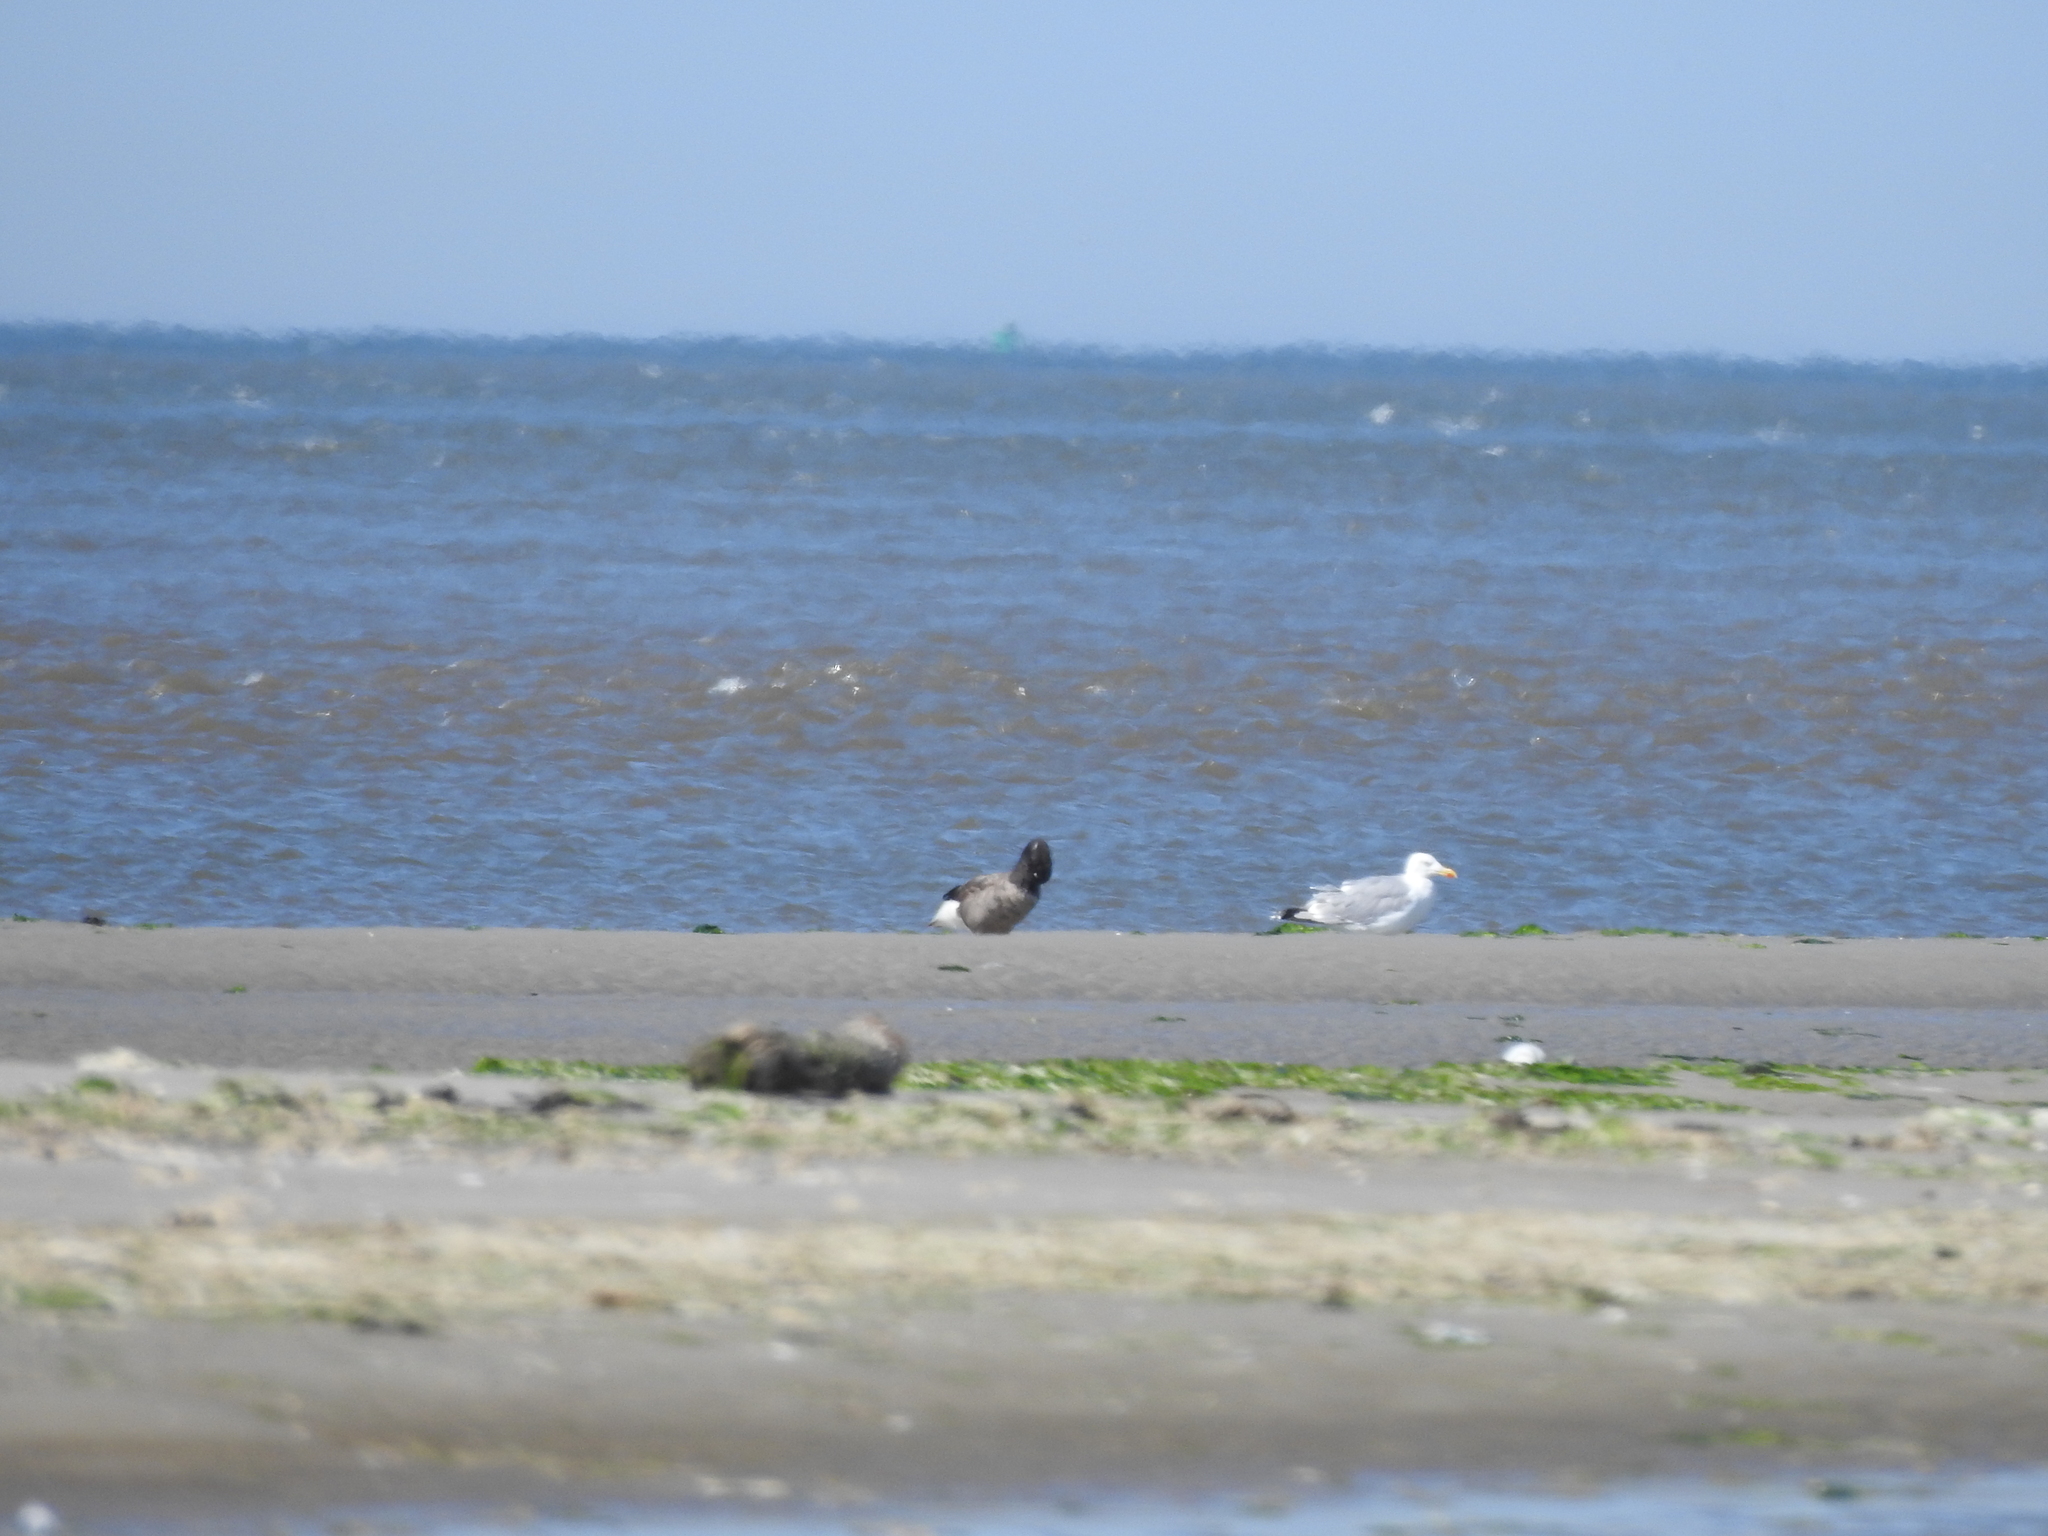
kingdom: Animalia
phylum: Chordata
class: Aves
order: Anseriformes
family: Anatidae
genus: Branta
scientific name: Branta bernicla
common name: Brant goose
